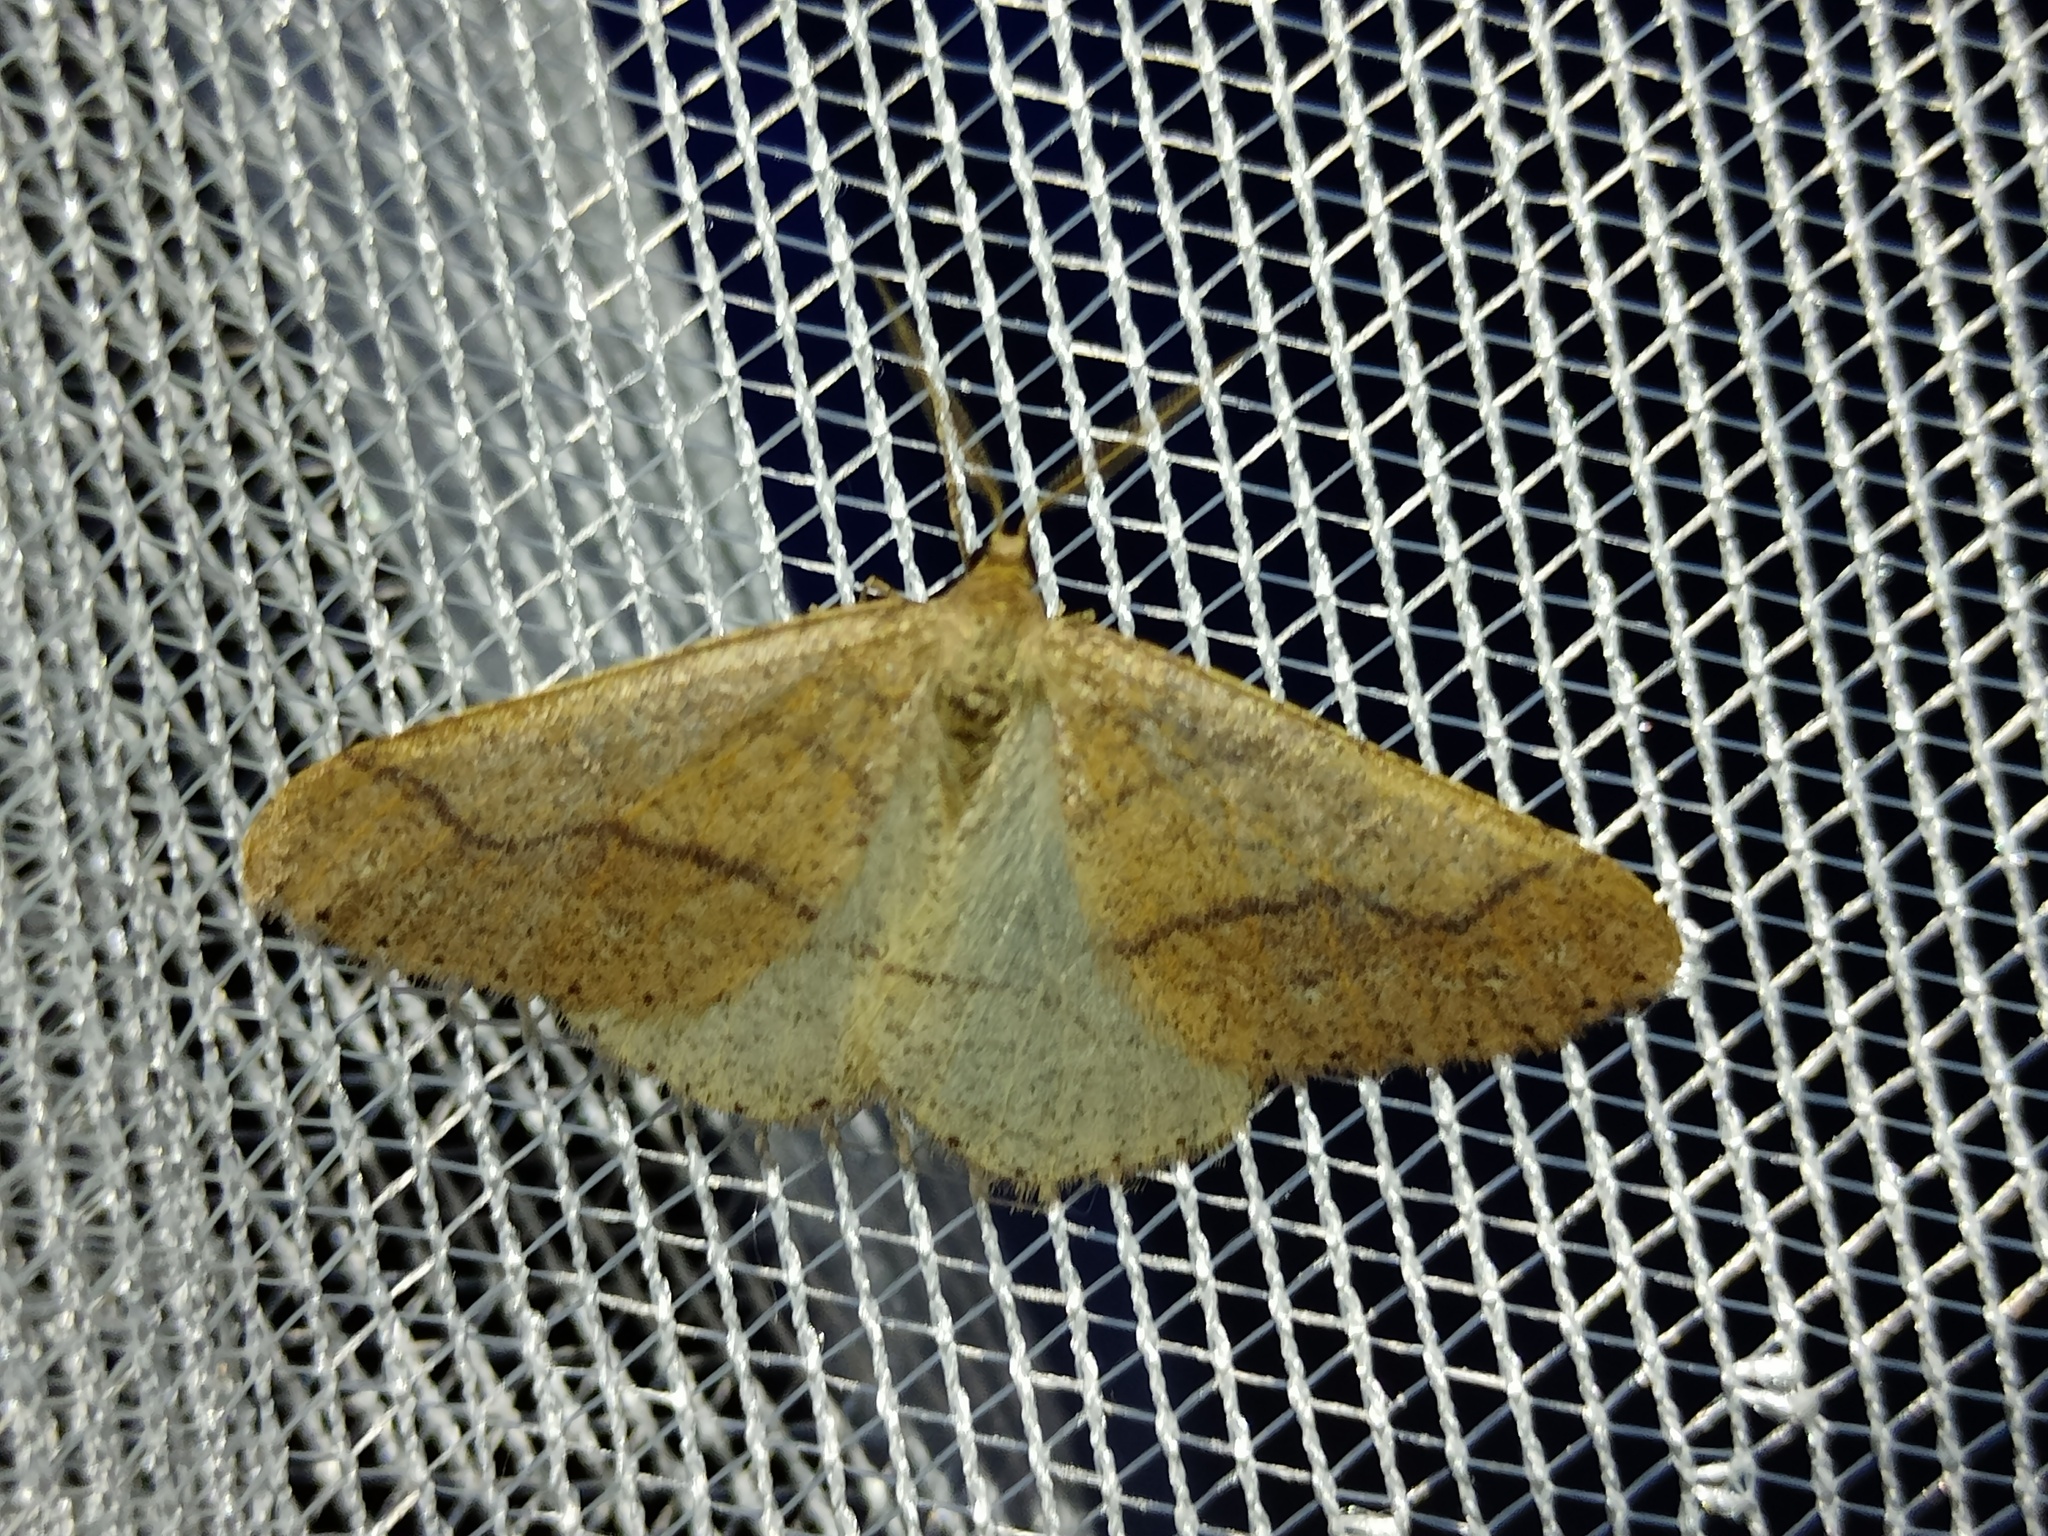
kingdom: Animalia
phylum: Arthropoda
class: Insecta
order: Lepidoptera
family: Geometridae
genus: Agriopis
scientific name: Agriopis marginaria
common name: Dotted border
